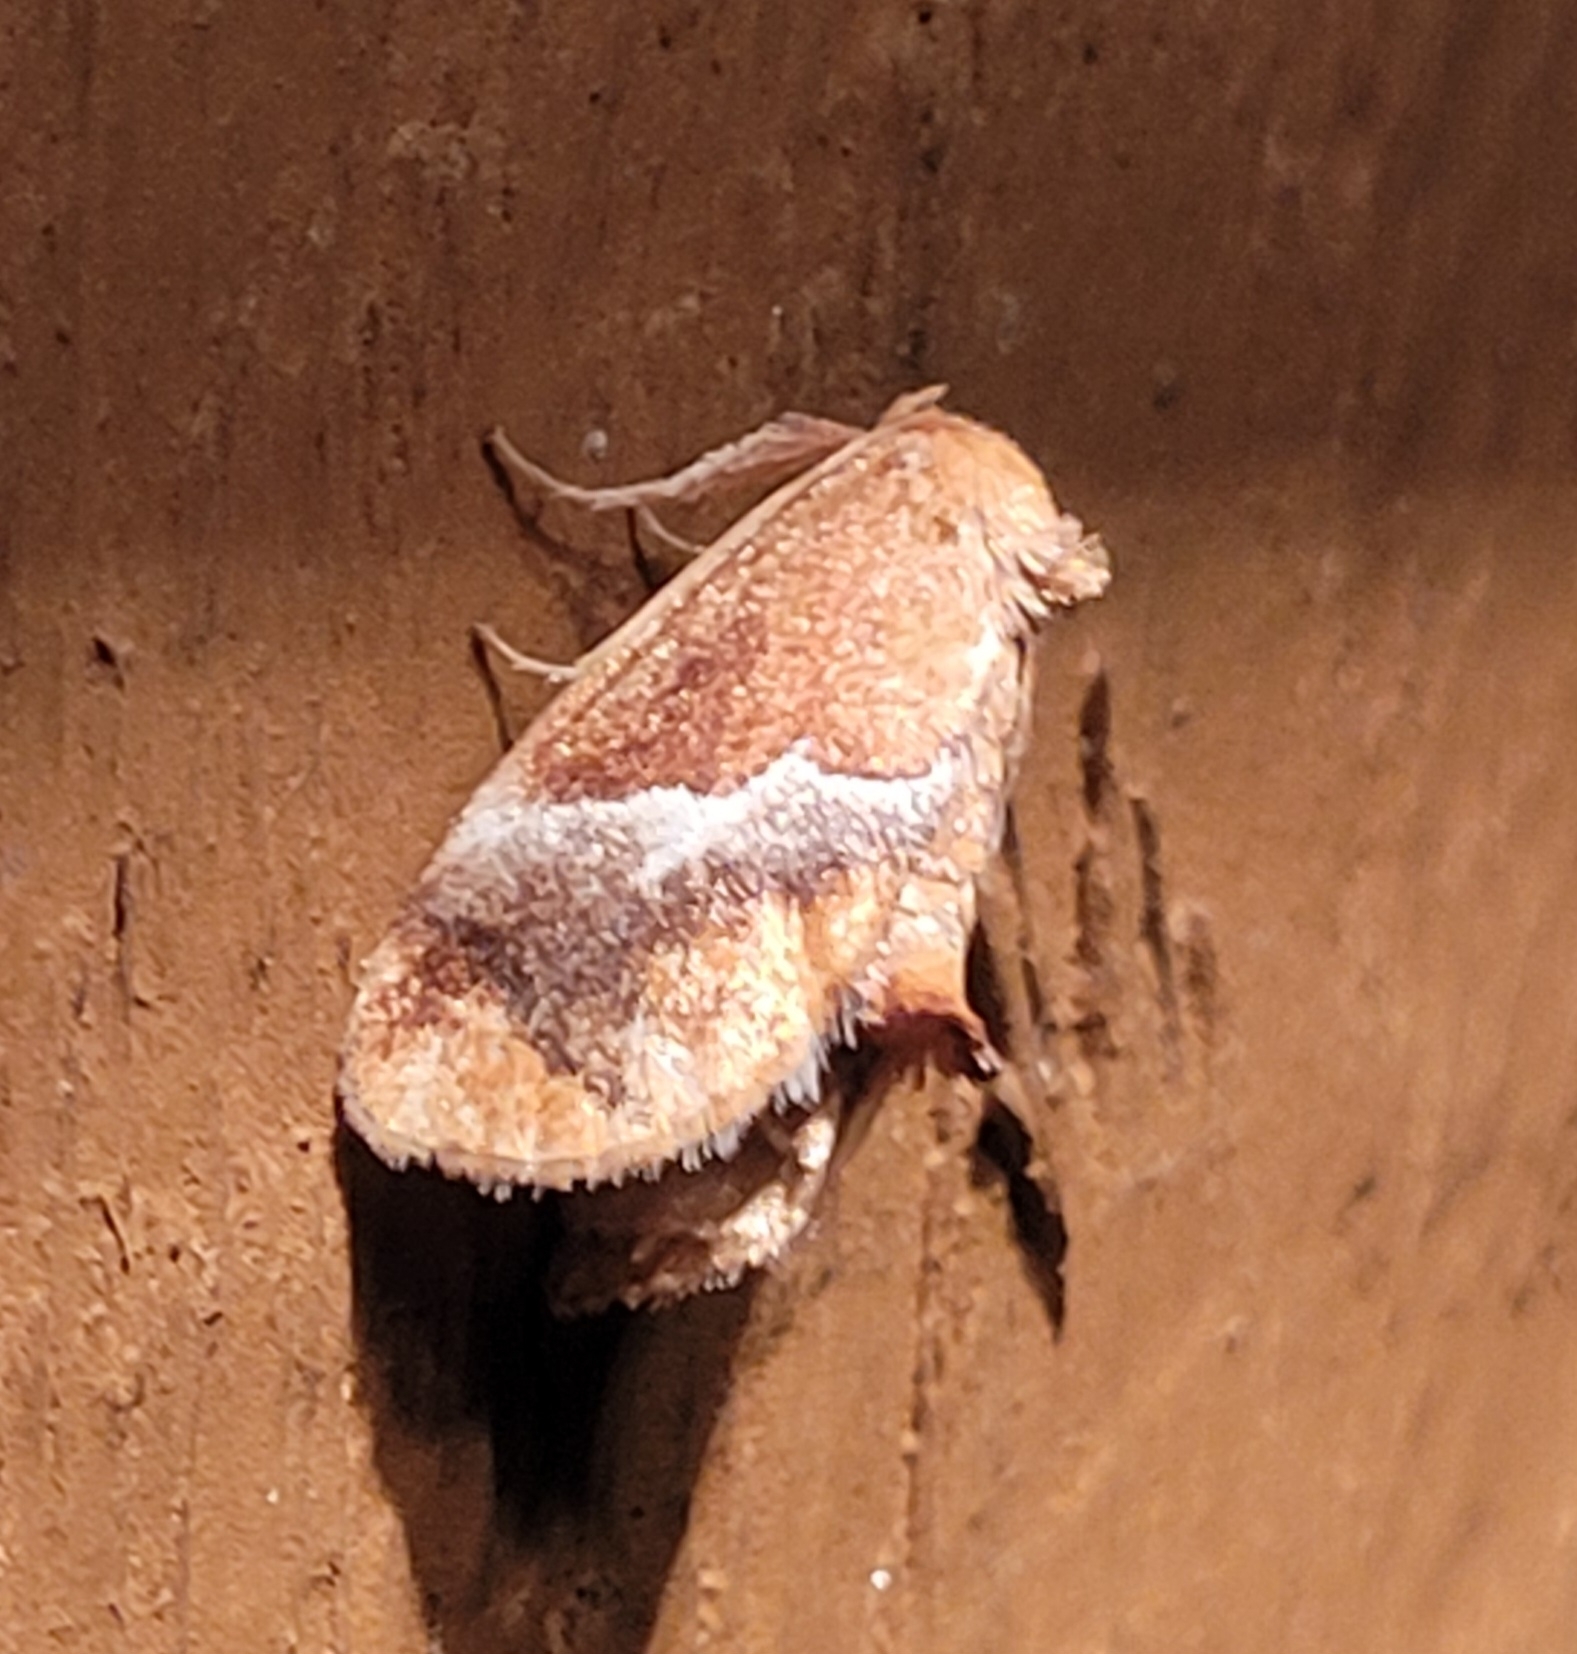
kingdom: Animalia
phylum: Arthropoda
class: Insecta
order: Lepidoptera
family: Limacodidae
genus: Lithacodes
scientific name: Lithacodes fasciola
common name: Yellow-shouldered slug moth
